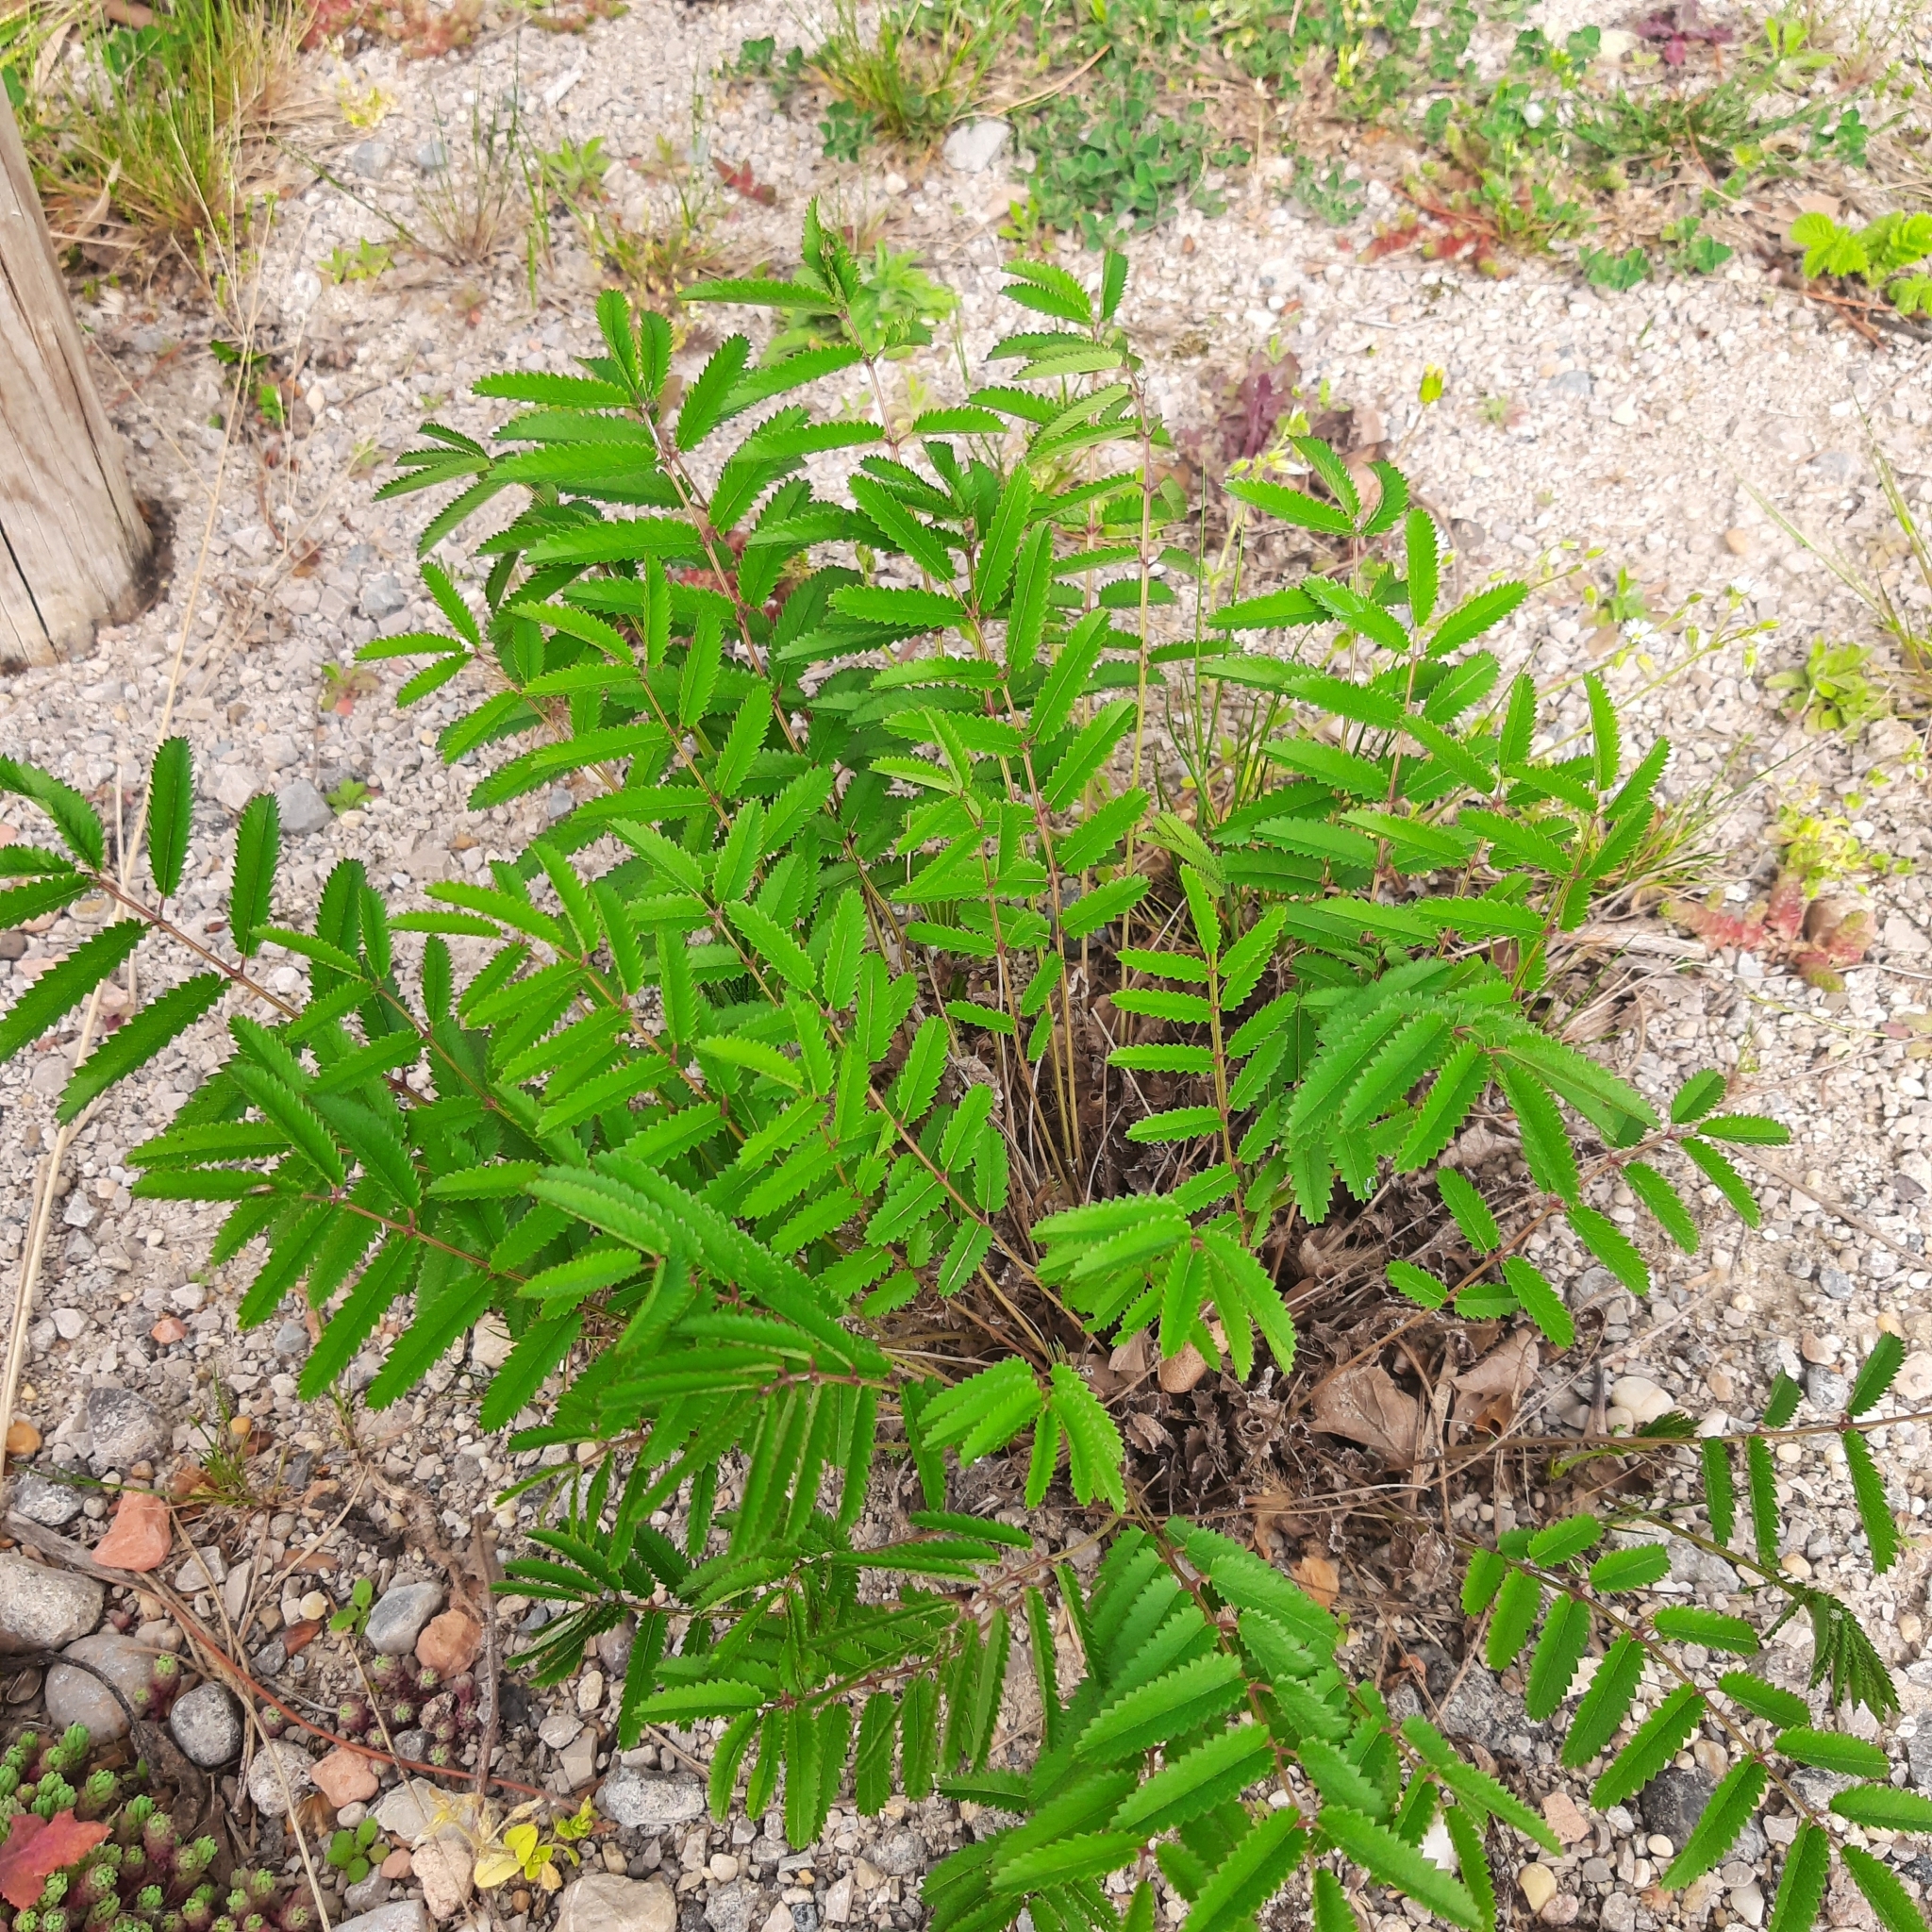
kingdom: Plantae
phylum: Tracheophyta
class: Magnoliopsida
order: Rosales
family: Rosaceae
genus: Sanguisorba
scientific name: Sanguisorba officinalis
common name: Great burnet
